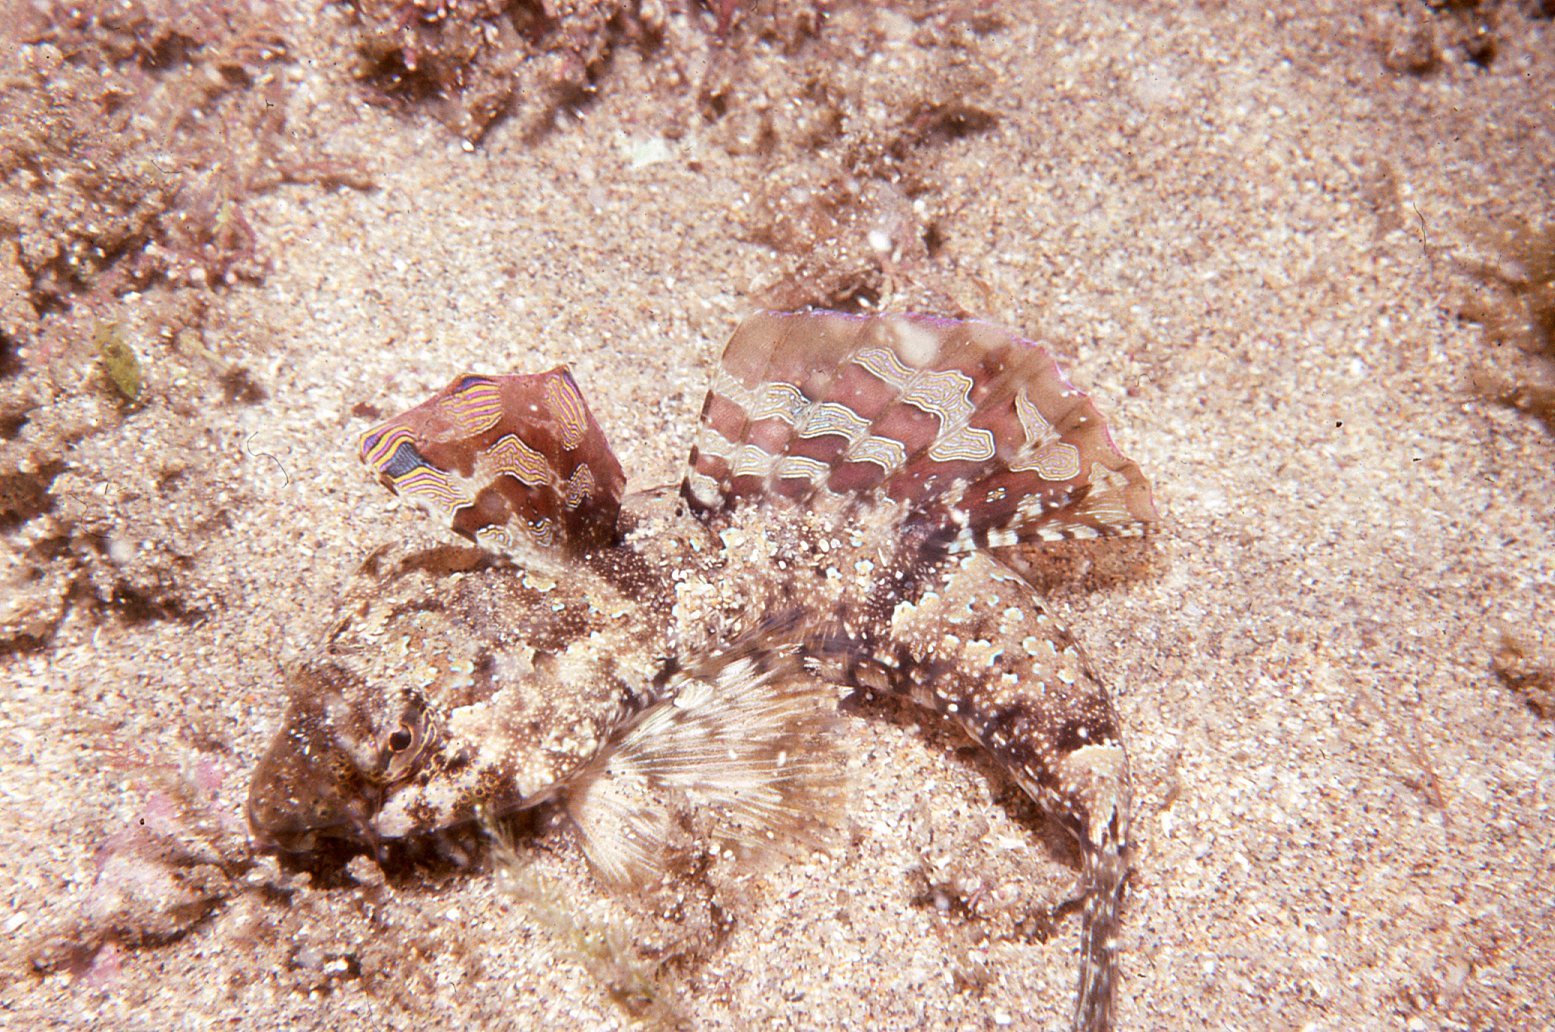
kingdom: Animalia
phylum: Chordata
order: Perciformes
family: Callionymidae
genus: Synchiropus
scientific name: Synchiropus papilio
